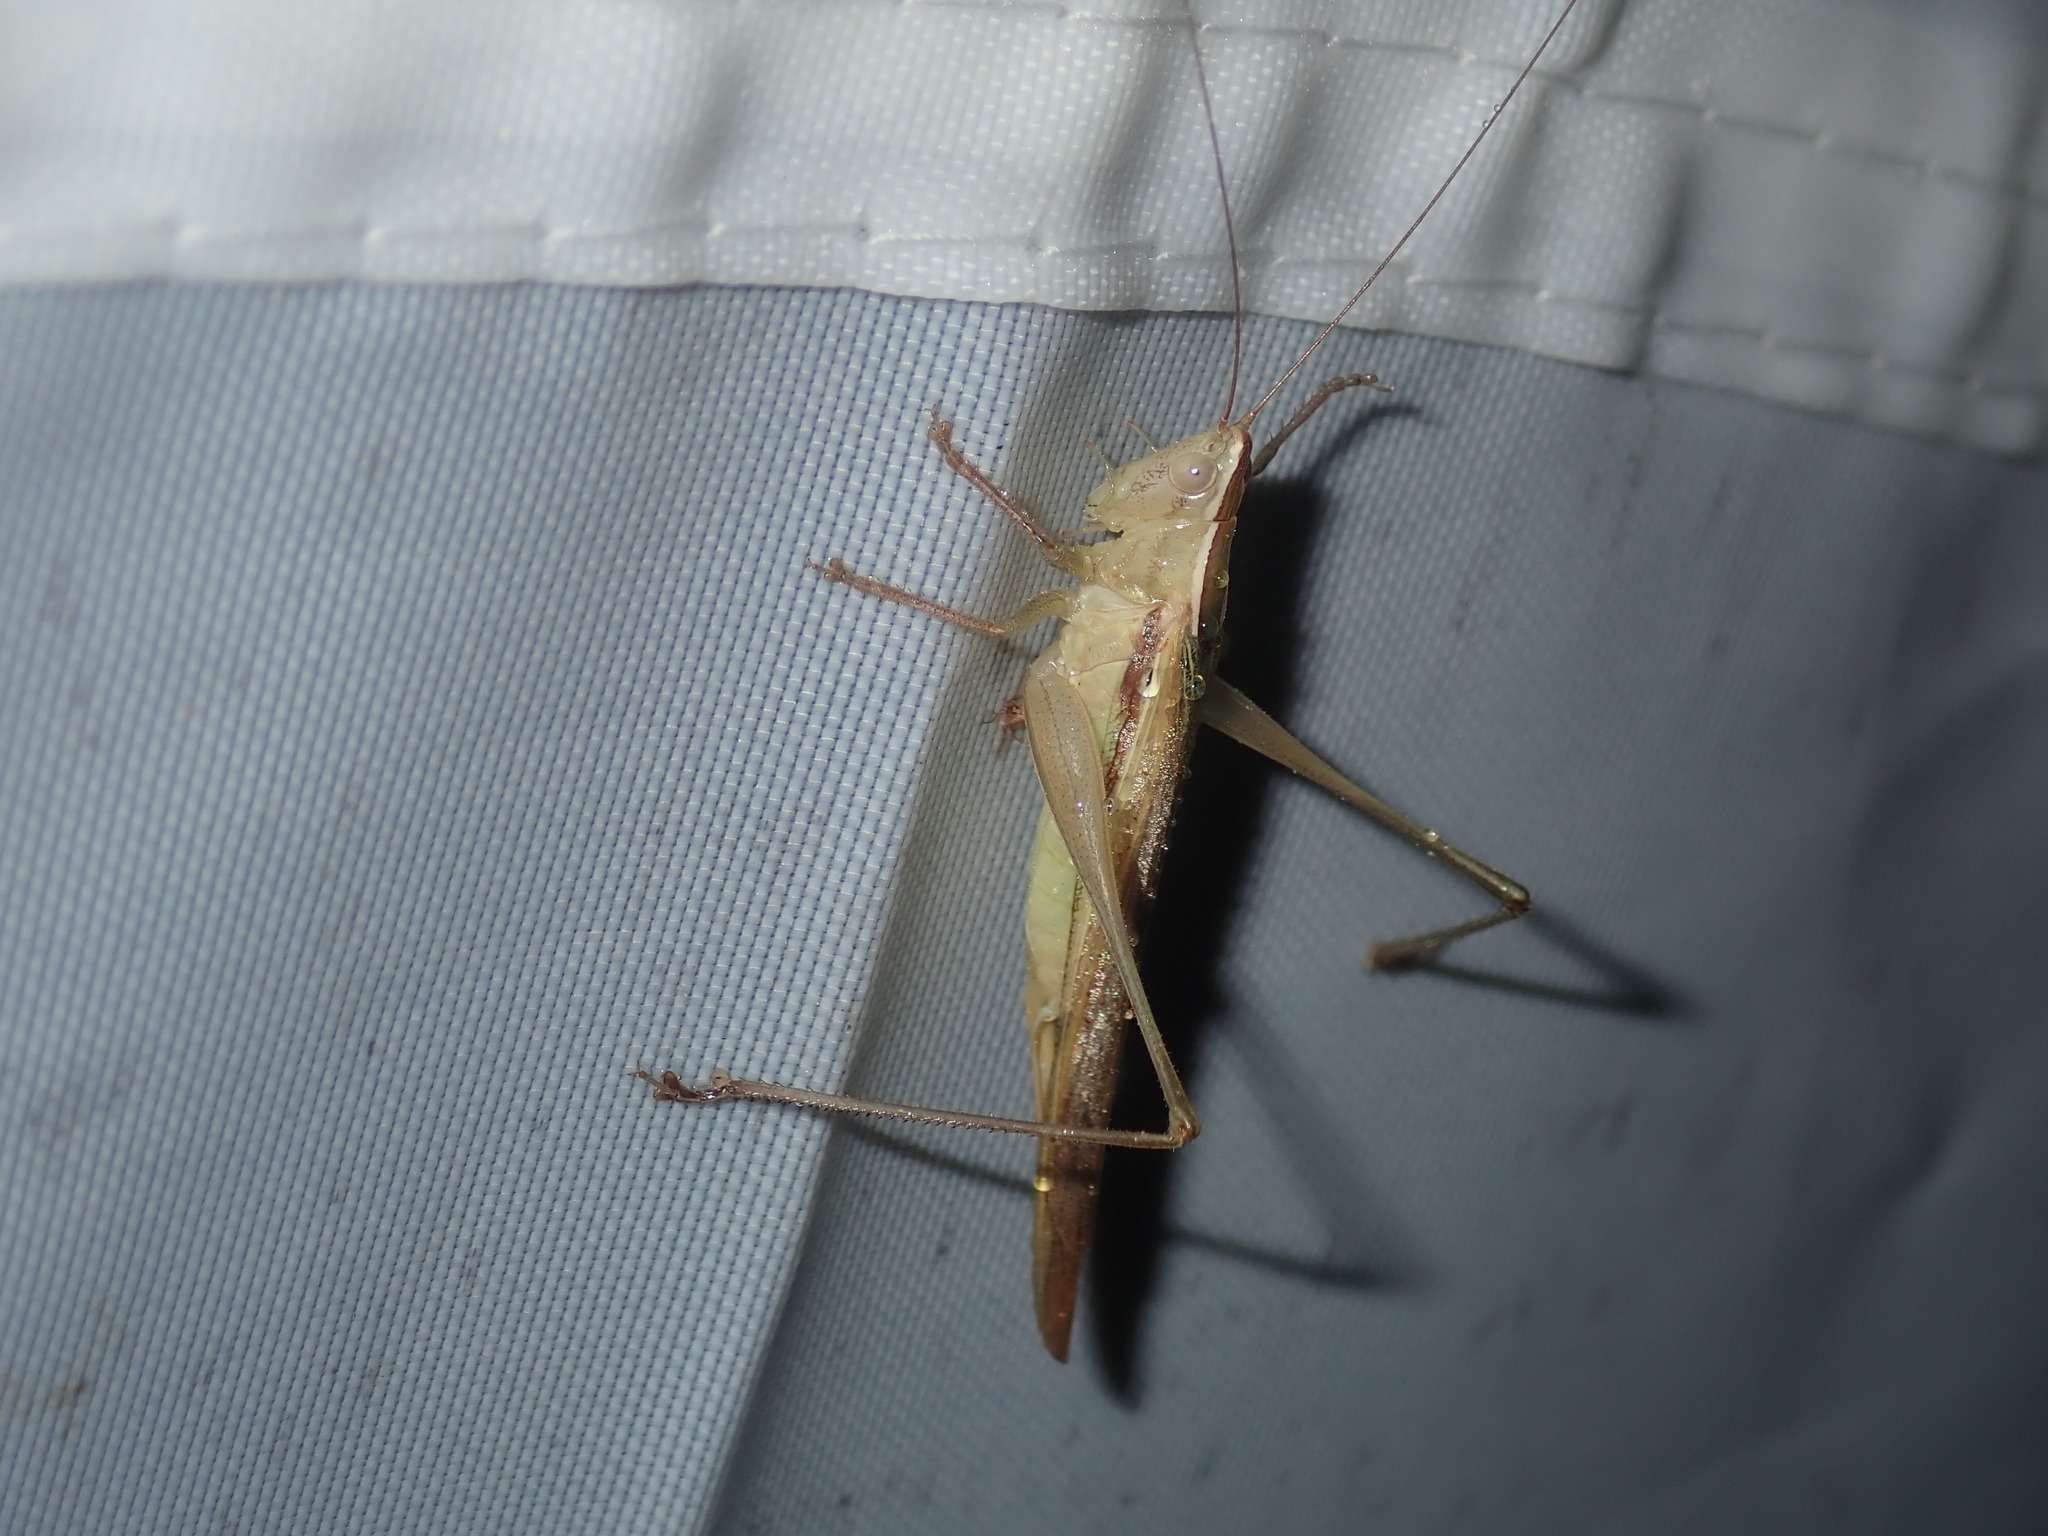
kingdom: Animalia
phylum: Arthropoda
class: Insecta
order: Orthoptera
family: Tettigoniidae
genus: Conocephalus
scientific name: Conocephalus upoluensis
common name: Upolu meadow katydid
